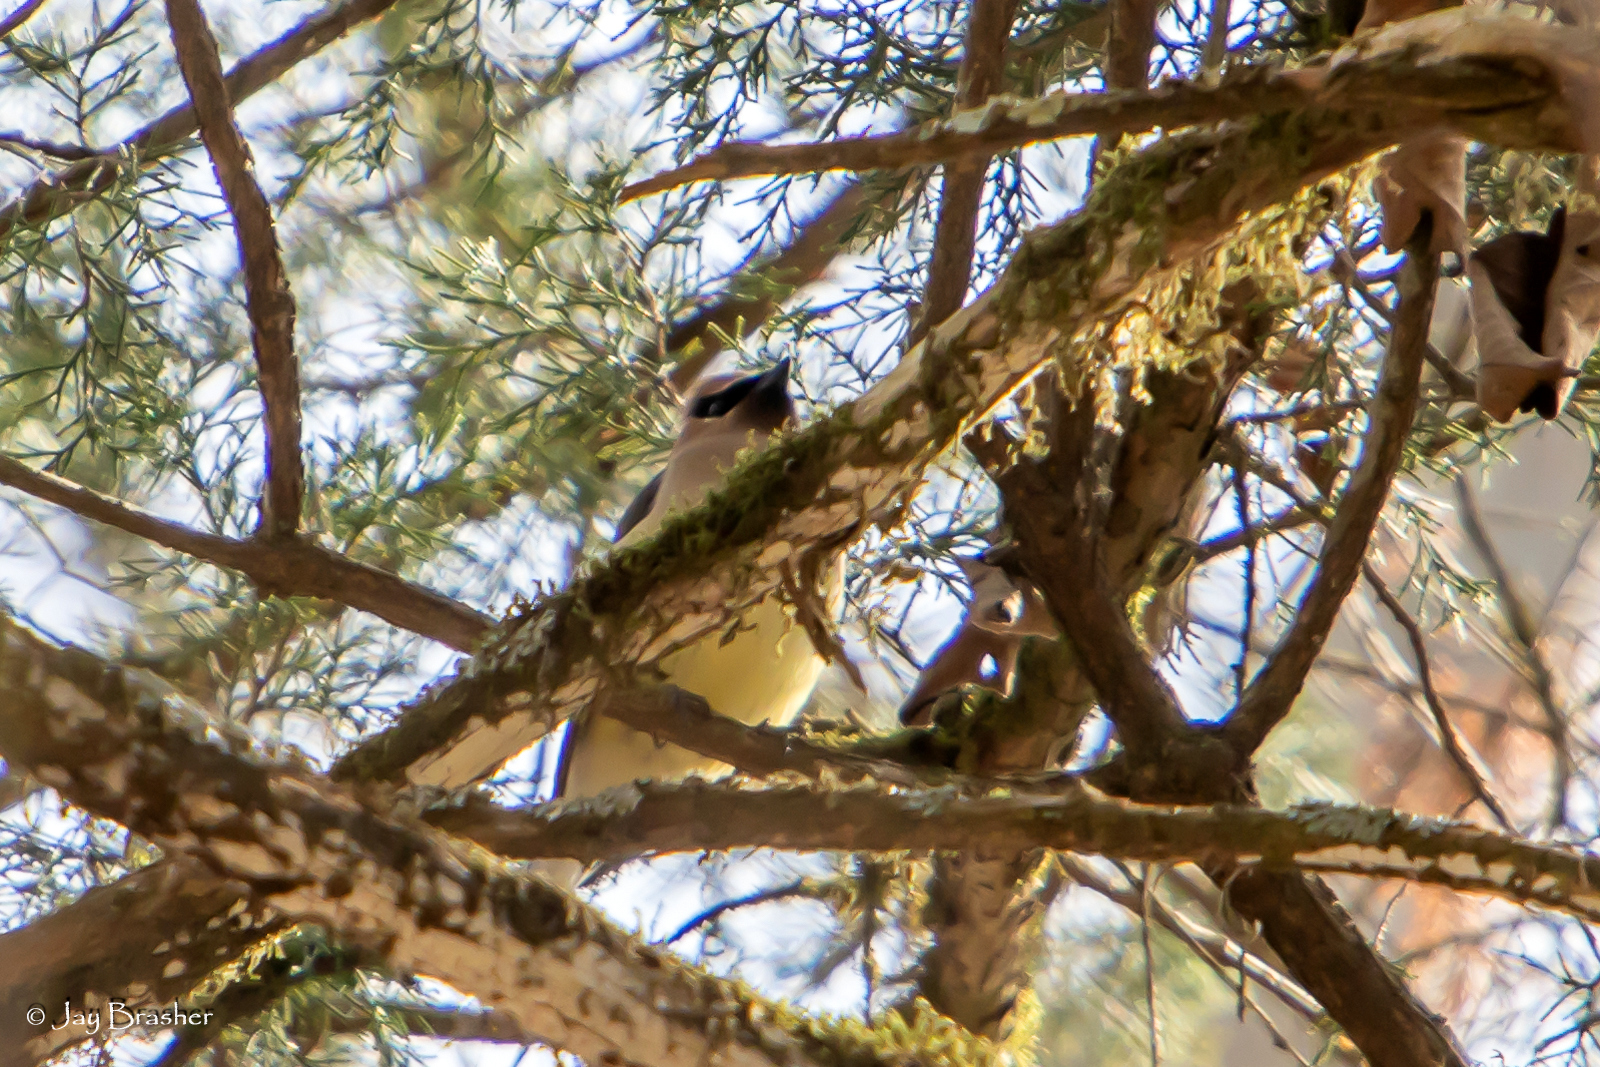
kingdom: Animalia
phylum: Chordata
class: Aves
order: Passeriformes
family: Bombycillidae
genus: Bombycilla
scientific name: Bombycilla cedrorum
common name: Cedar waxwing
